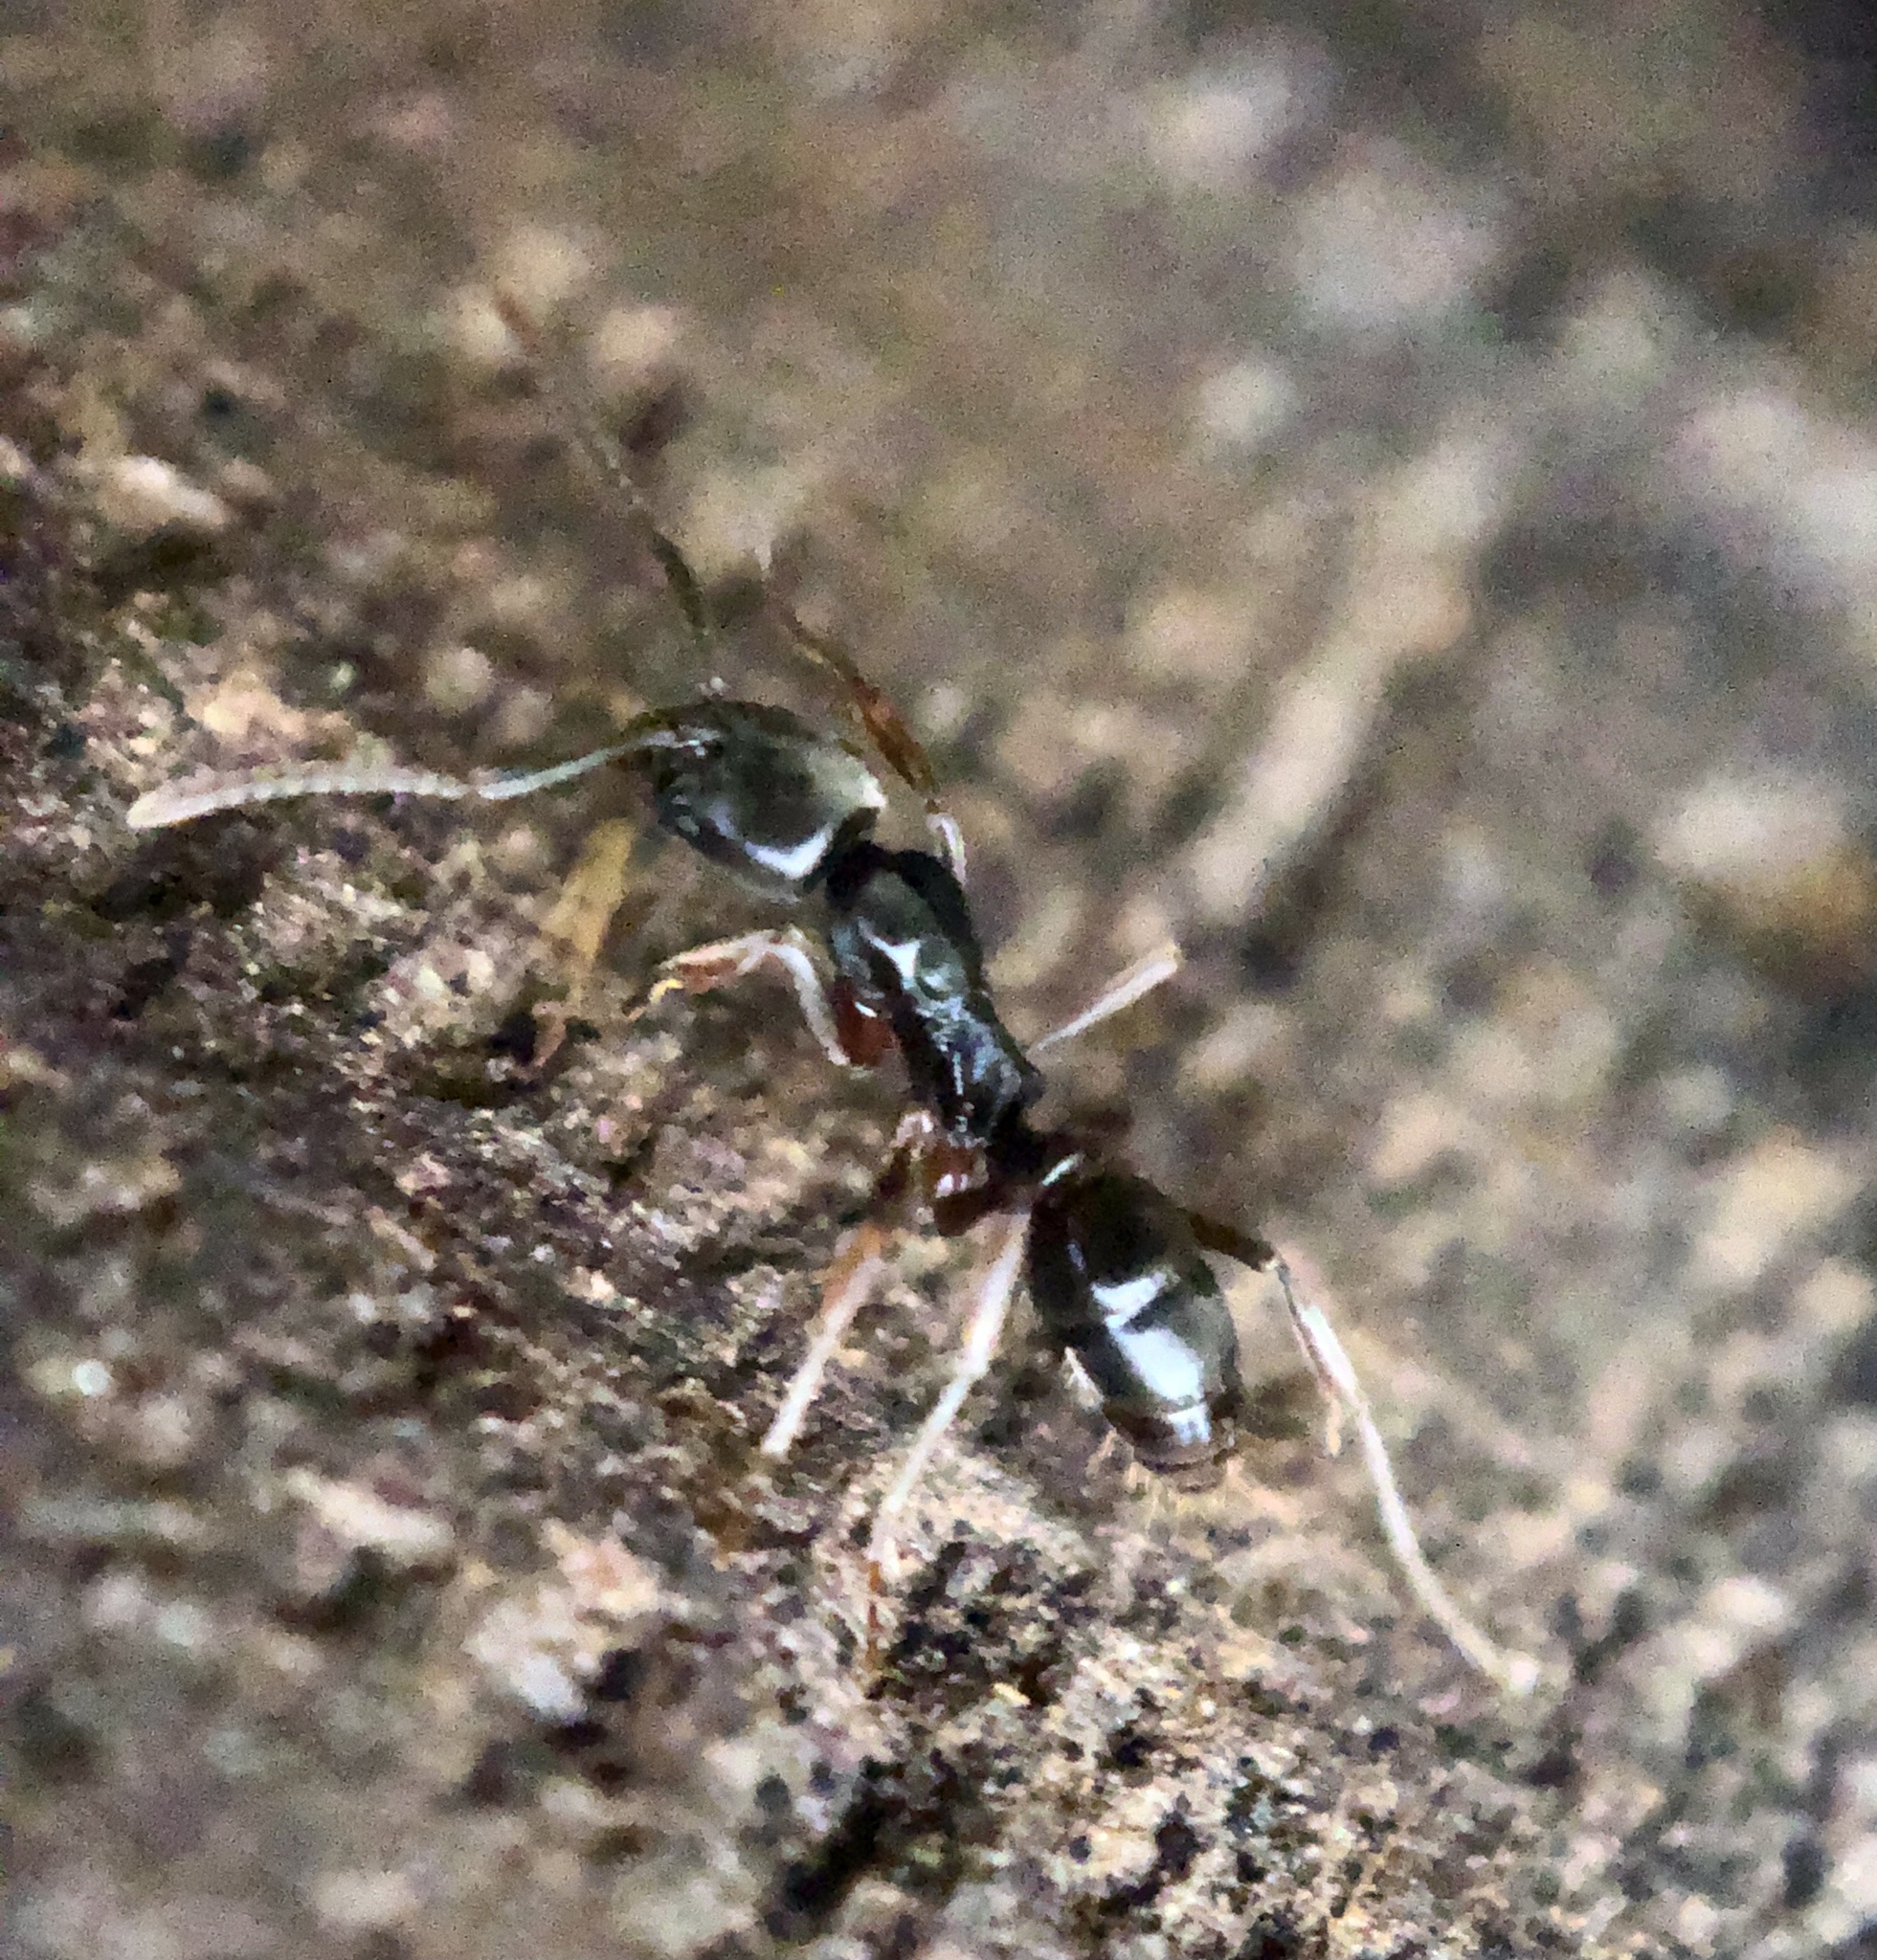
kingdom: Animalia
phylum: Arthropoda
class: Insecta
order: Hymenoptera
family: Formicidae
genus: Pachycondyla
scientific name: Pachycondyla chinensis
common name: Asian needle ant
